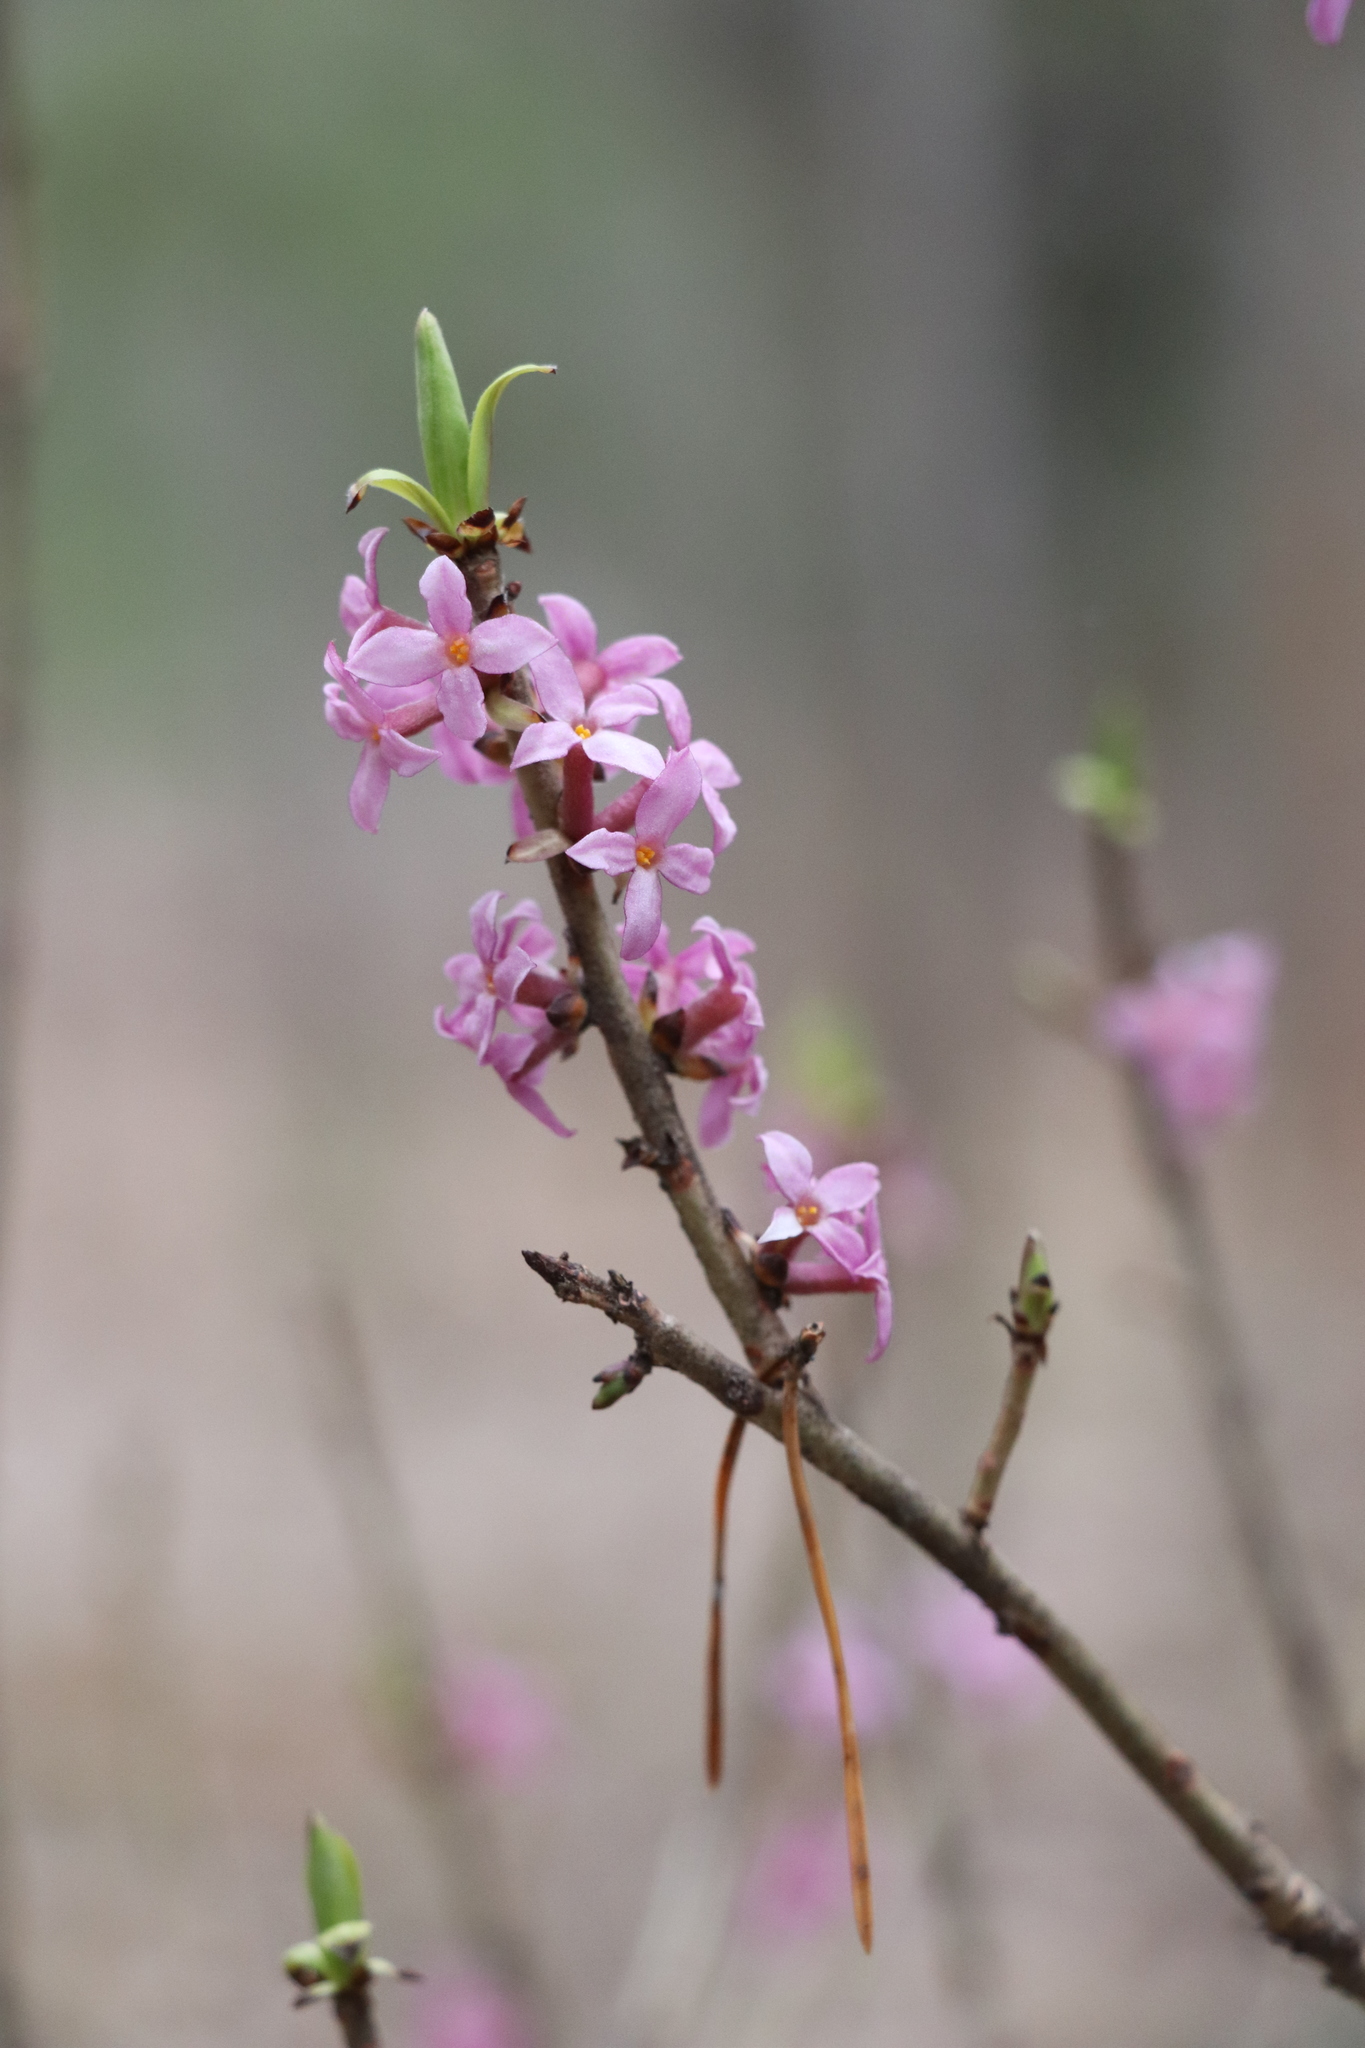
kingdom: Plantae
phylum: Tracheophyta
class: Magnoliopsida
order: Malvales
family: Thymelaeaceae
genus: Daphne
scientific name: Daphne mezereum
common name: Mezereon
